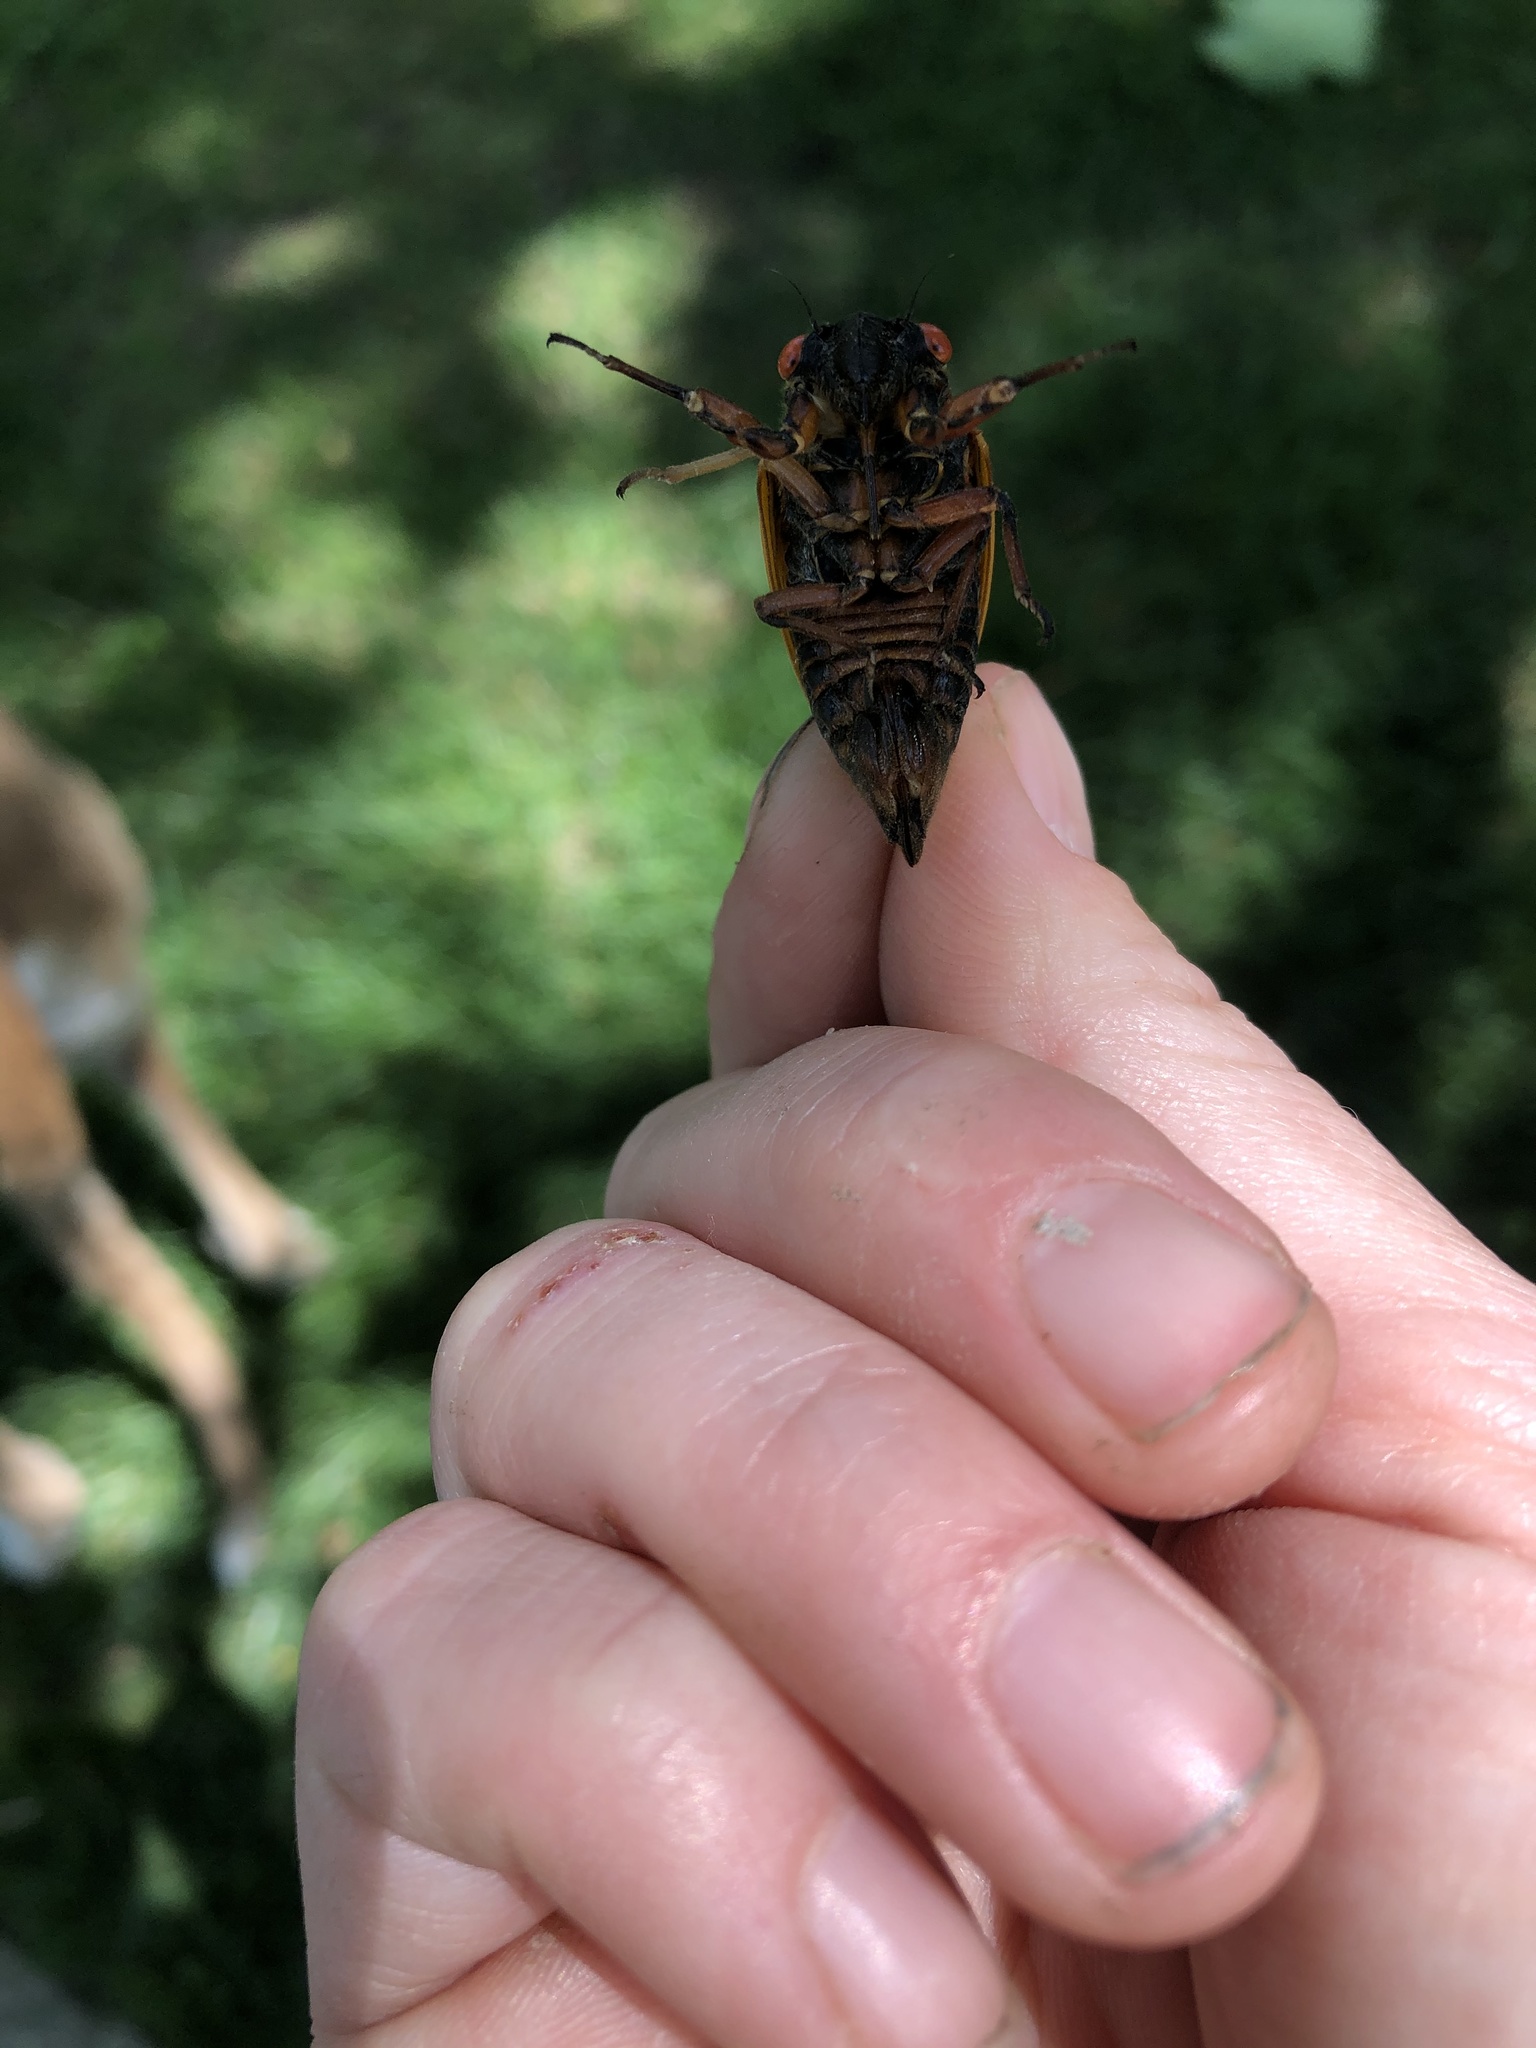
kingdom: Animalia
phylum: Arthropoda
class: Insecta
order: Hemiptera
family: Cicadidae
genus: Magicicada
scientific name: Magicicada septendecim
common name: Periodical cicada
